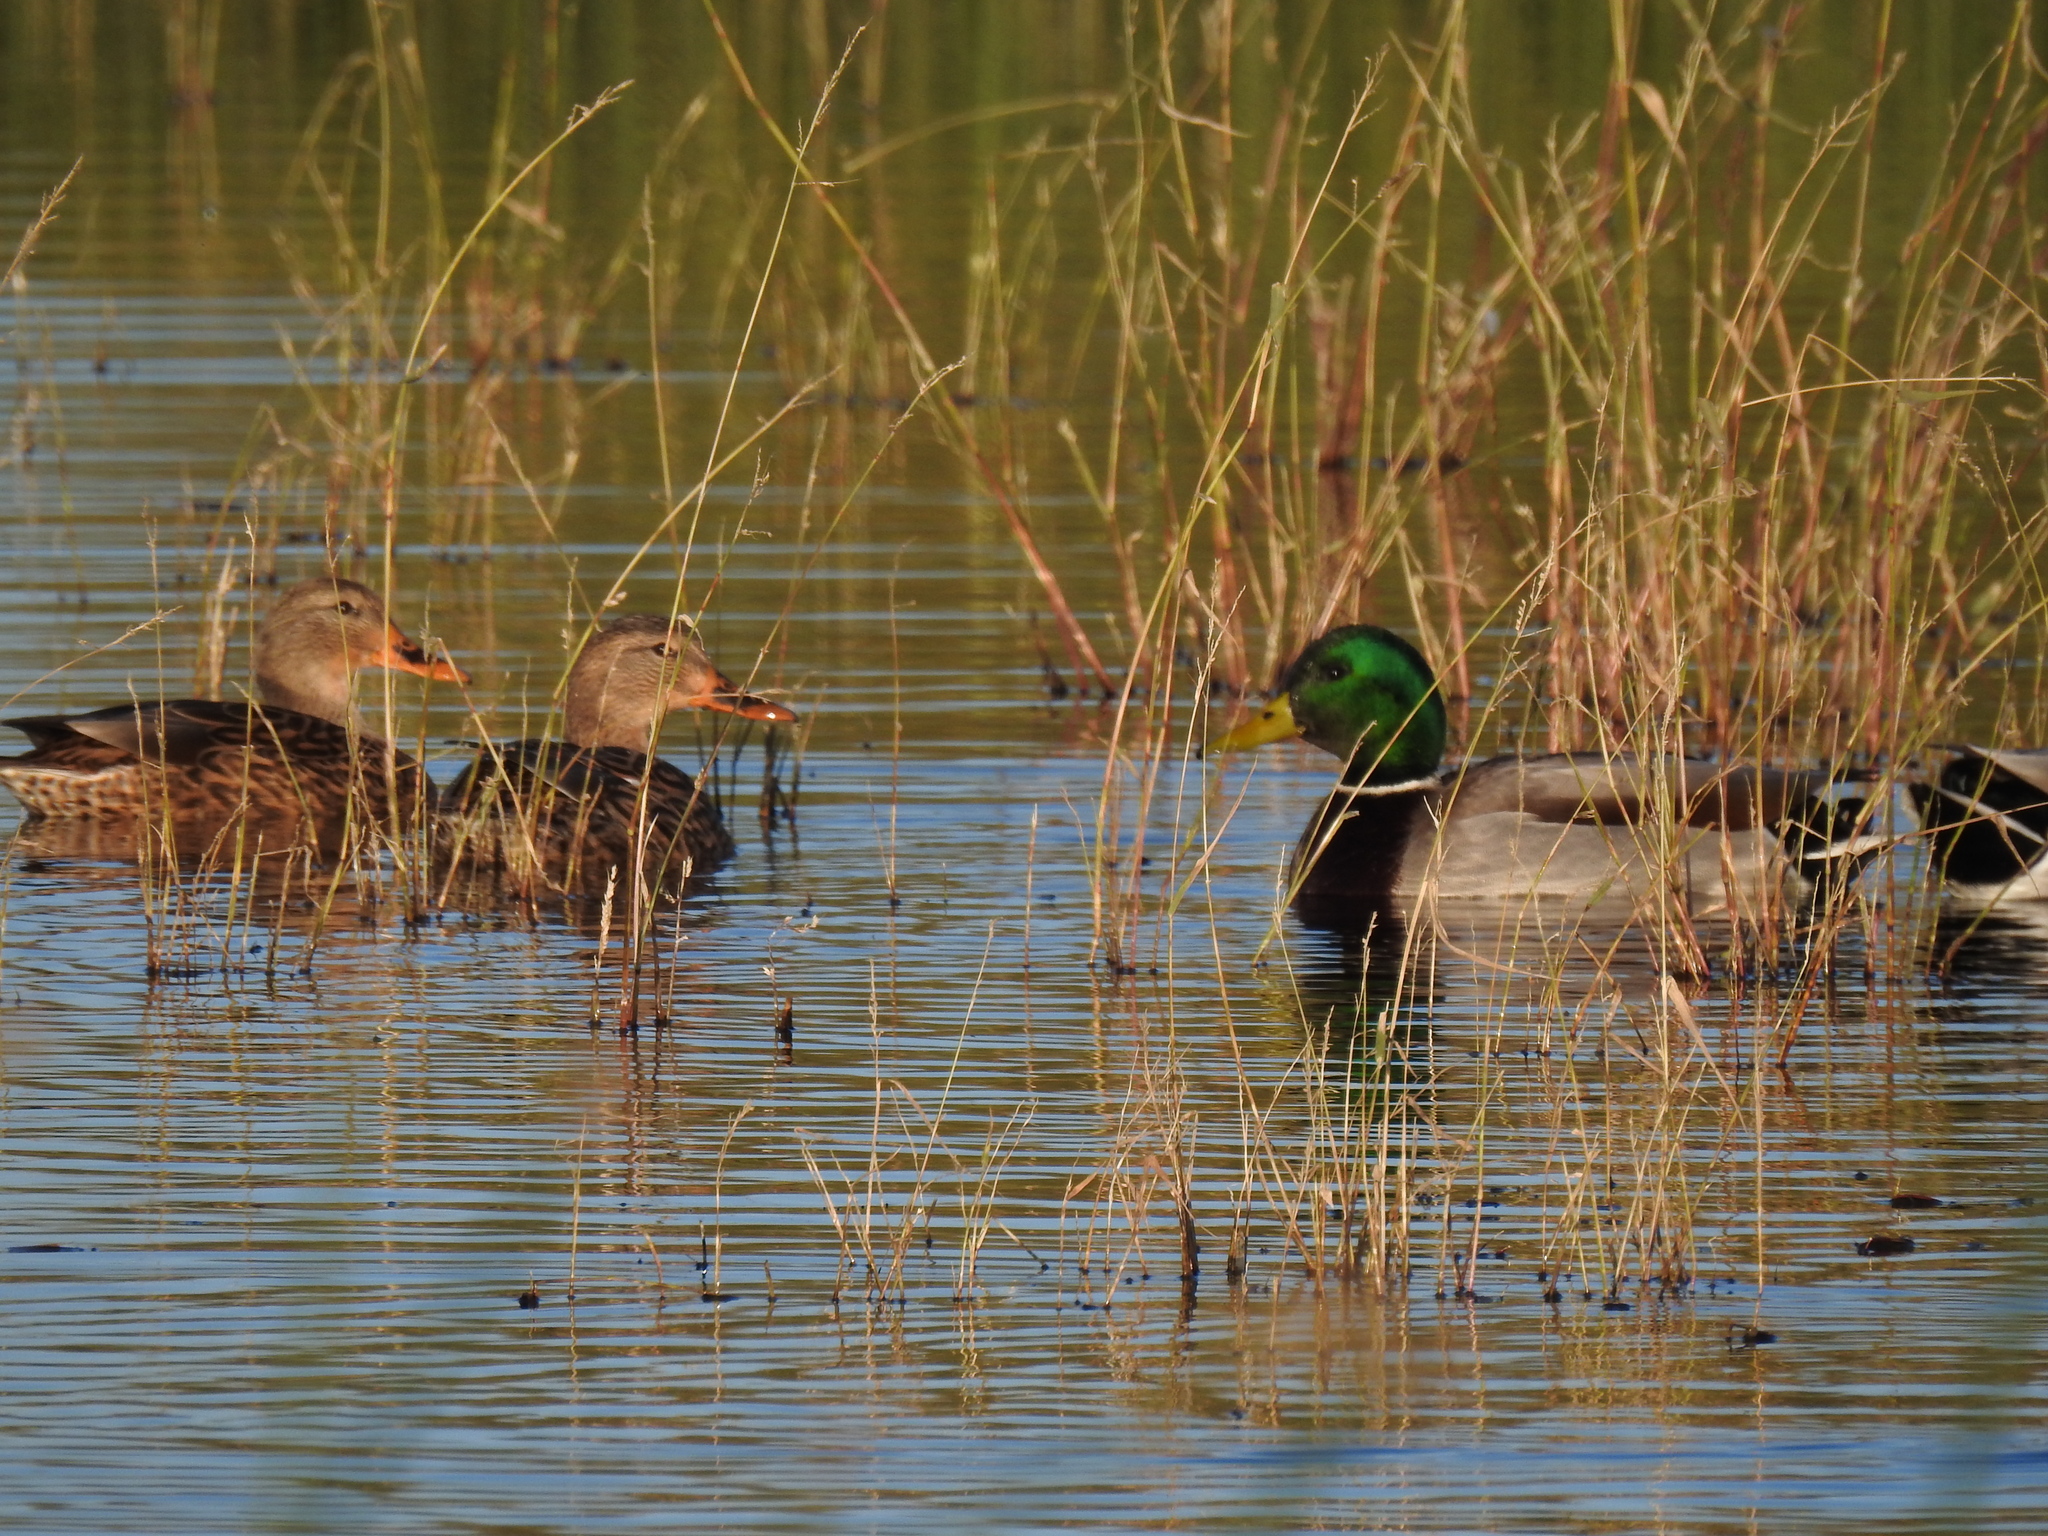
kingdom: Animalia
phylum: Chordata
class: Aves
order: Anseriformes
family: Anatidae
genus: Anas
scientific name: Anas platyrhynchos
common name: Mallard
